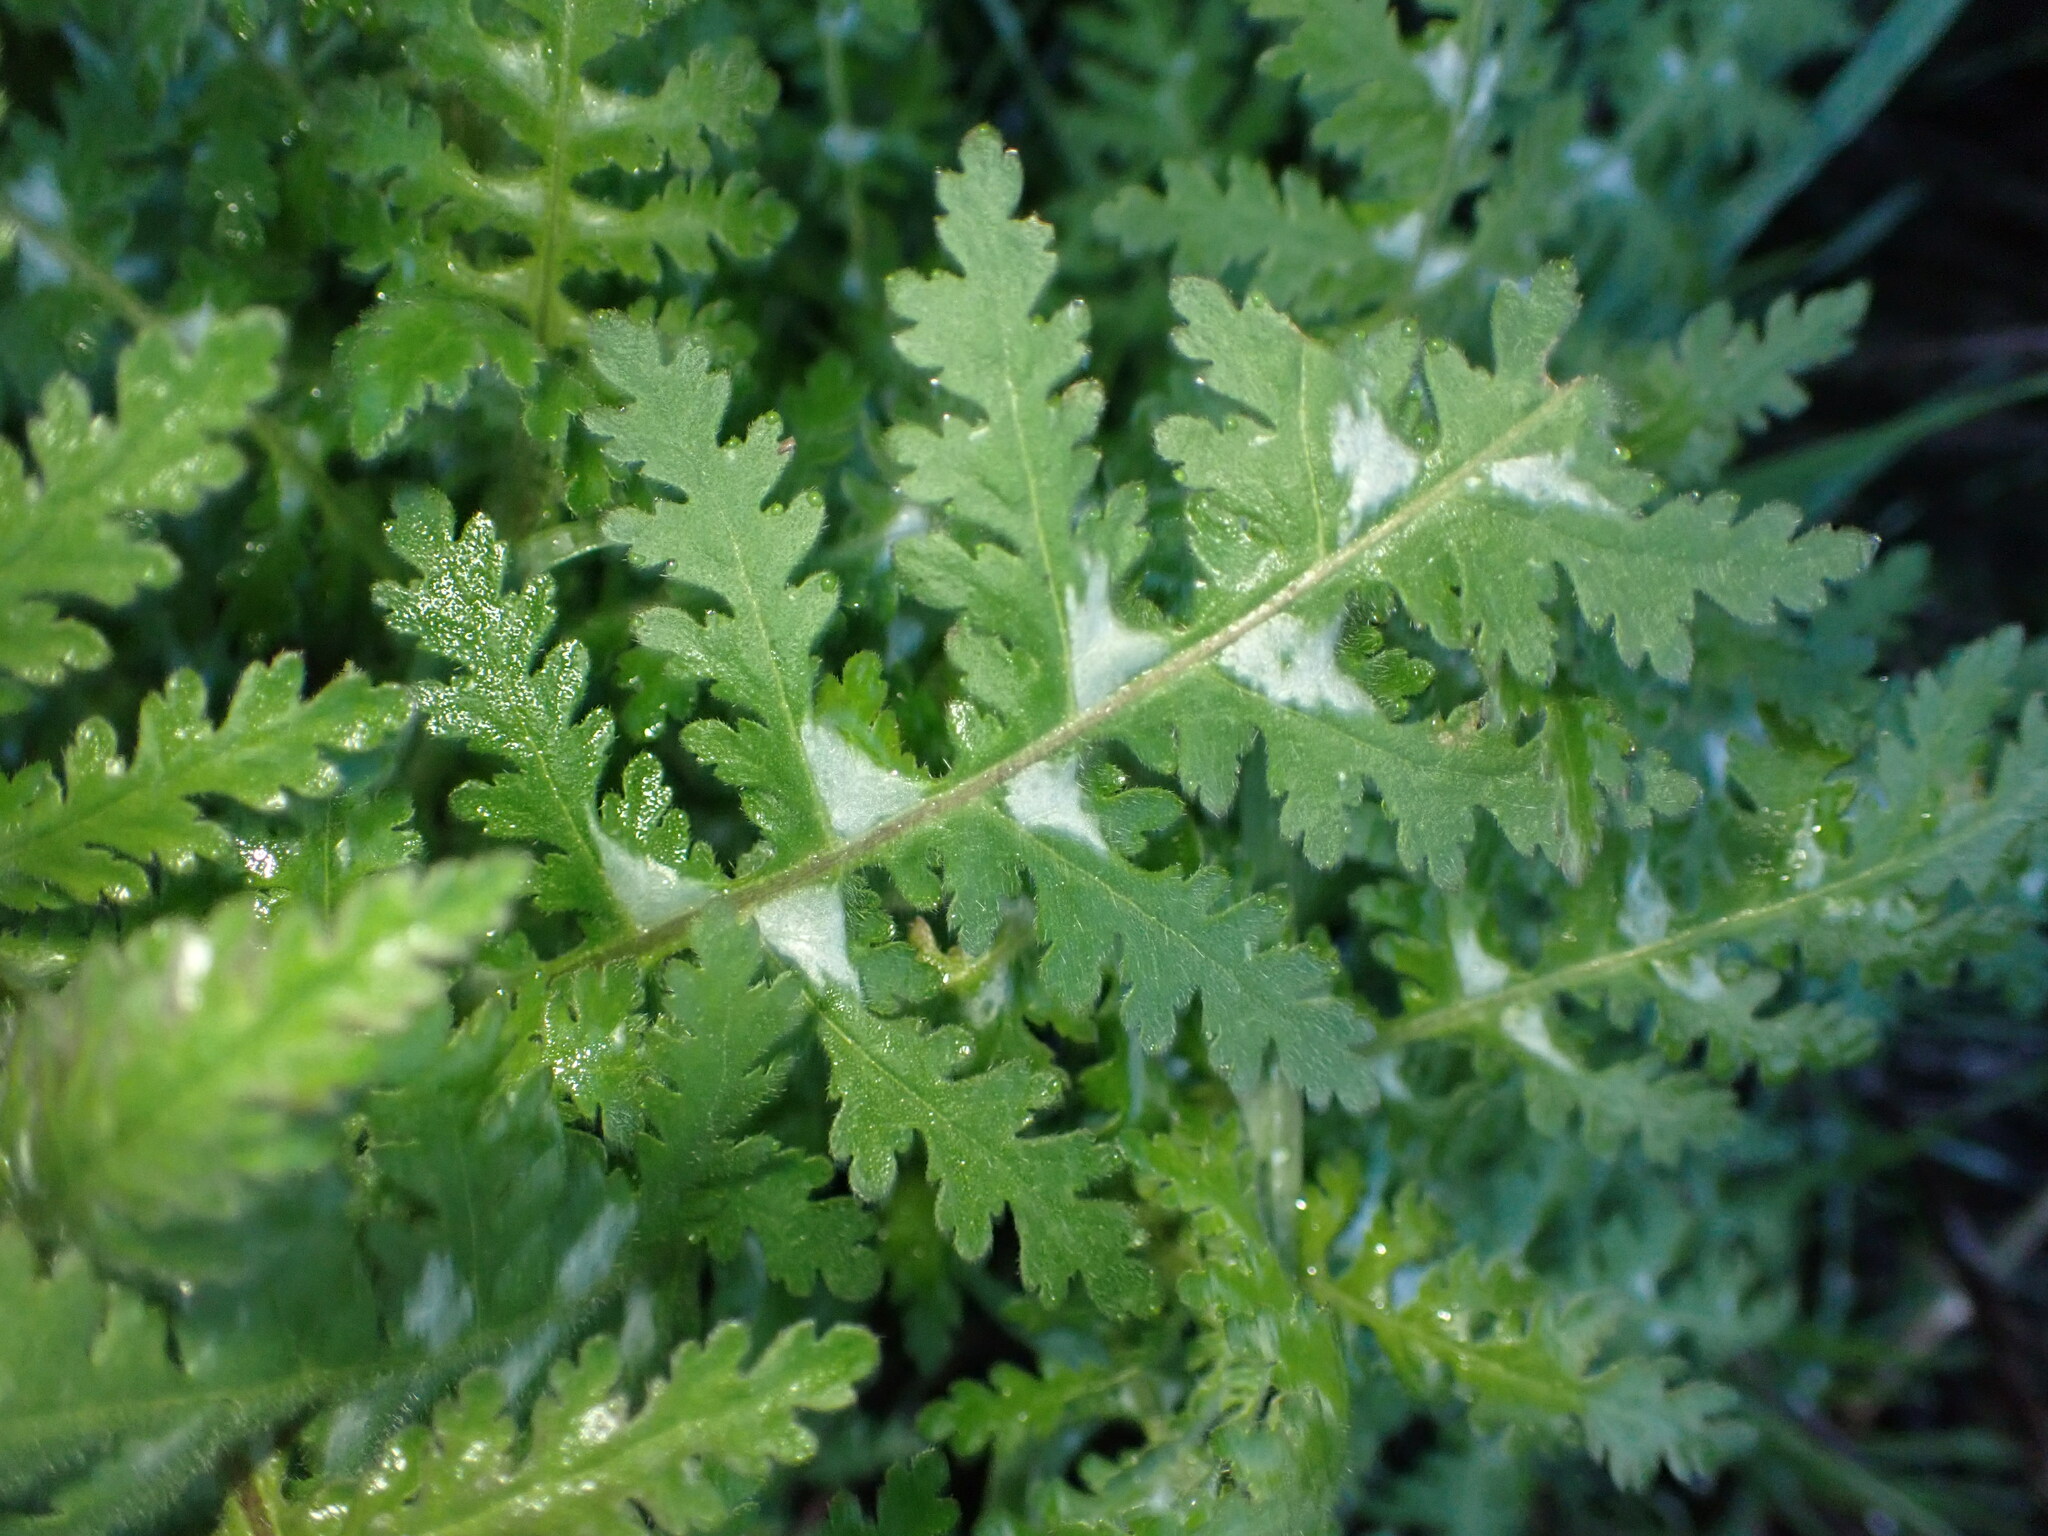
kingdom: Plantae
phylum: Tracheophyta
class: Magnoliopsida
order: Boraginales
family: Hydrophyllaceae
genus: Eucrypta
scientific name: Eucrypta chrysanthemifolia
